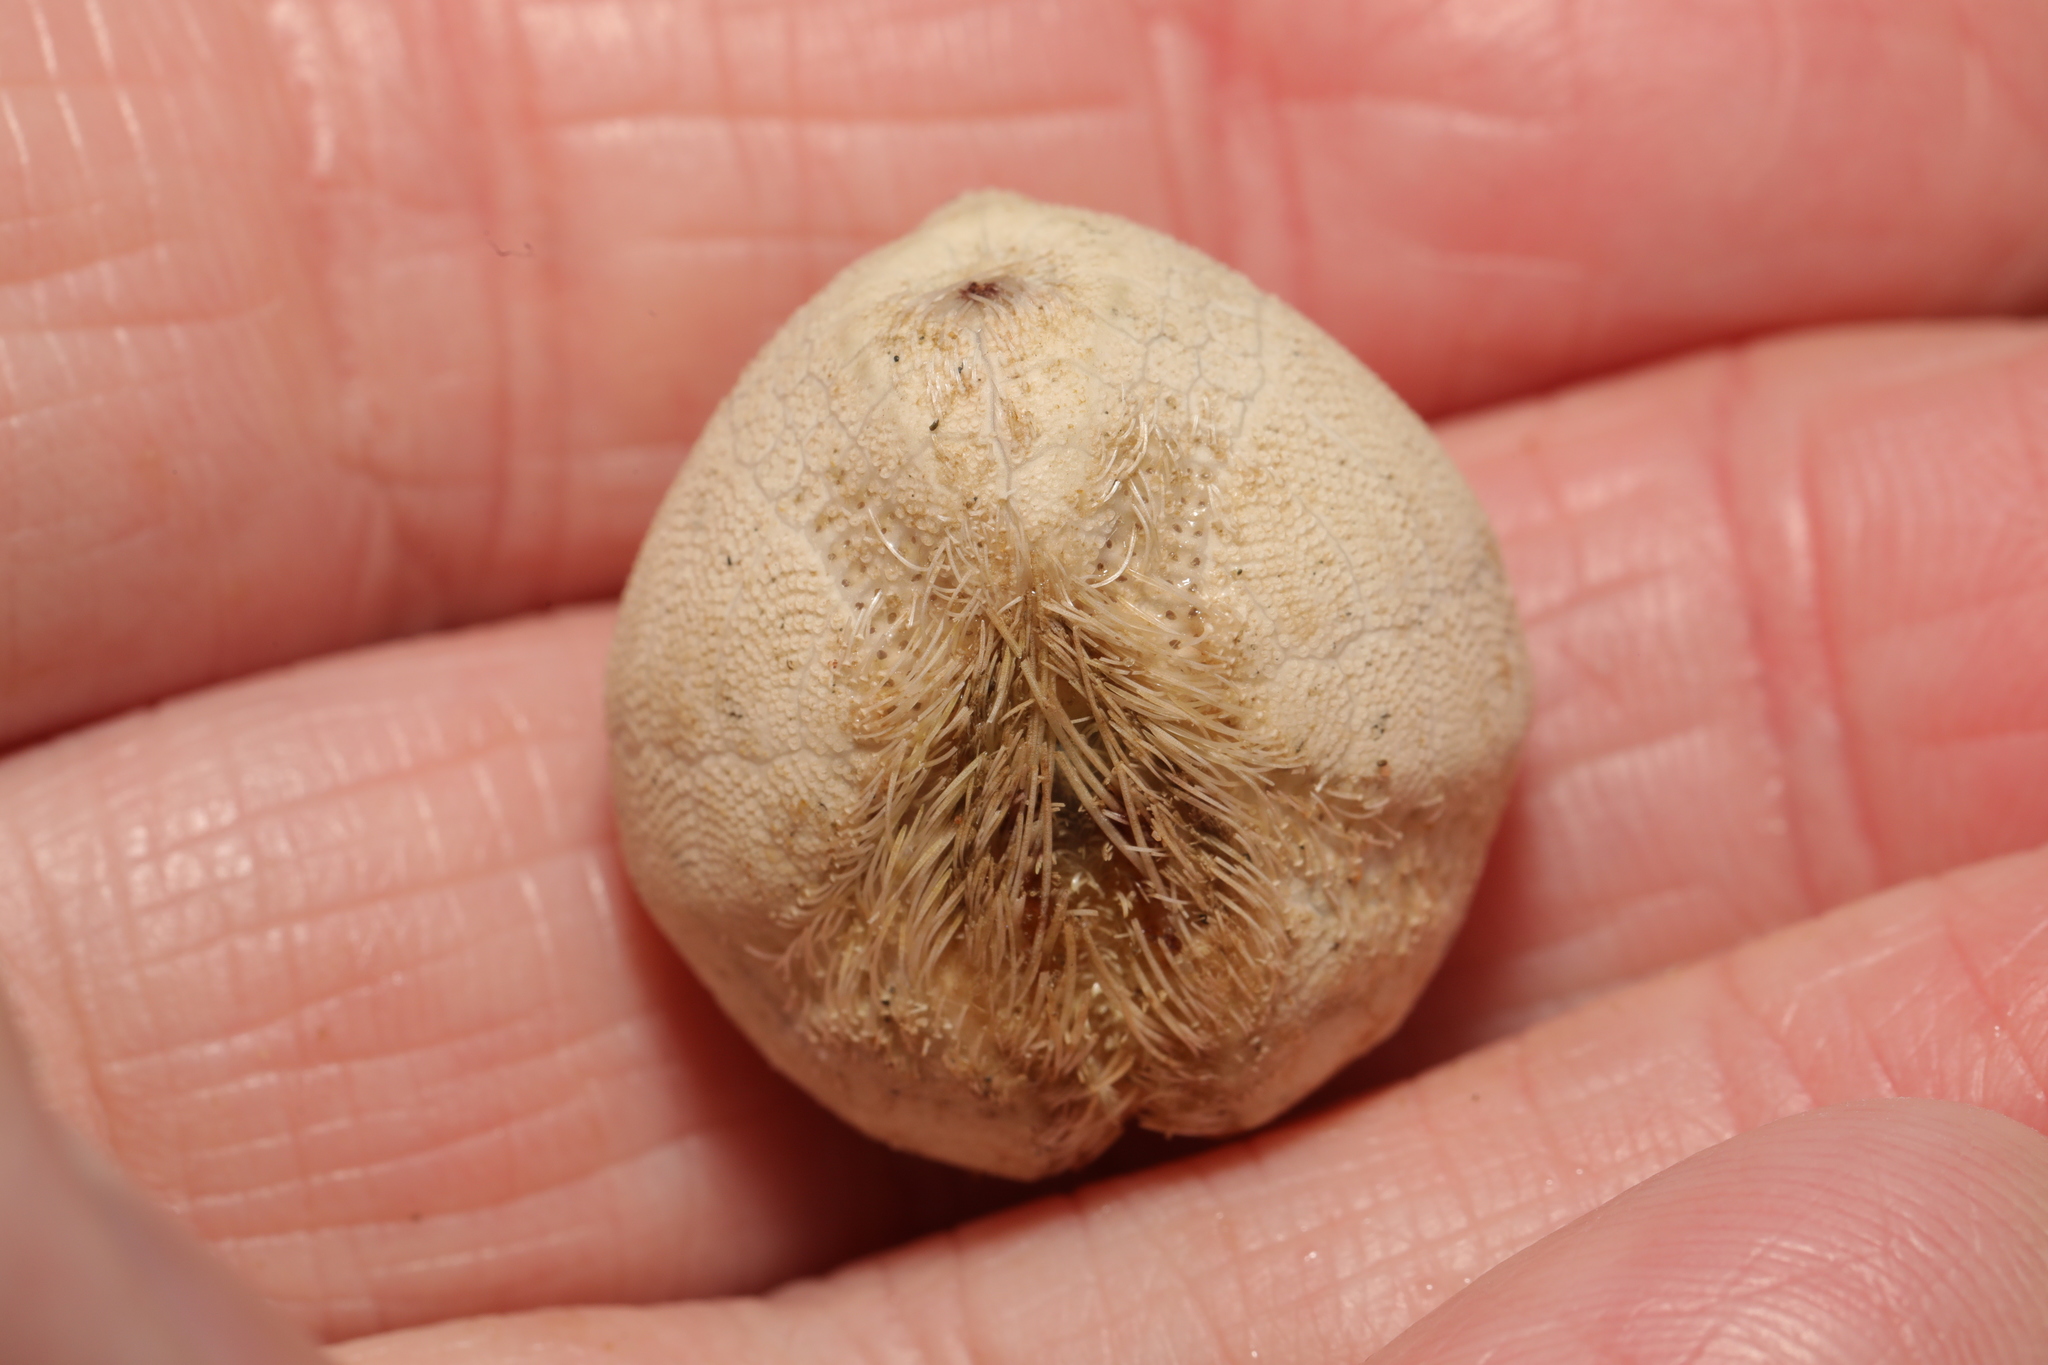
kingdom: Animalia
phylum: Echinodermata
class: Echinoidea
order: Spatangoida
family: Loveniidae
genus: Echinocardium
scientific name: Echinocardium cordatum
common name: Heart-urchin
